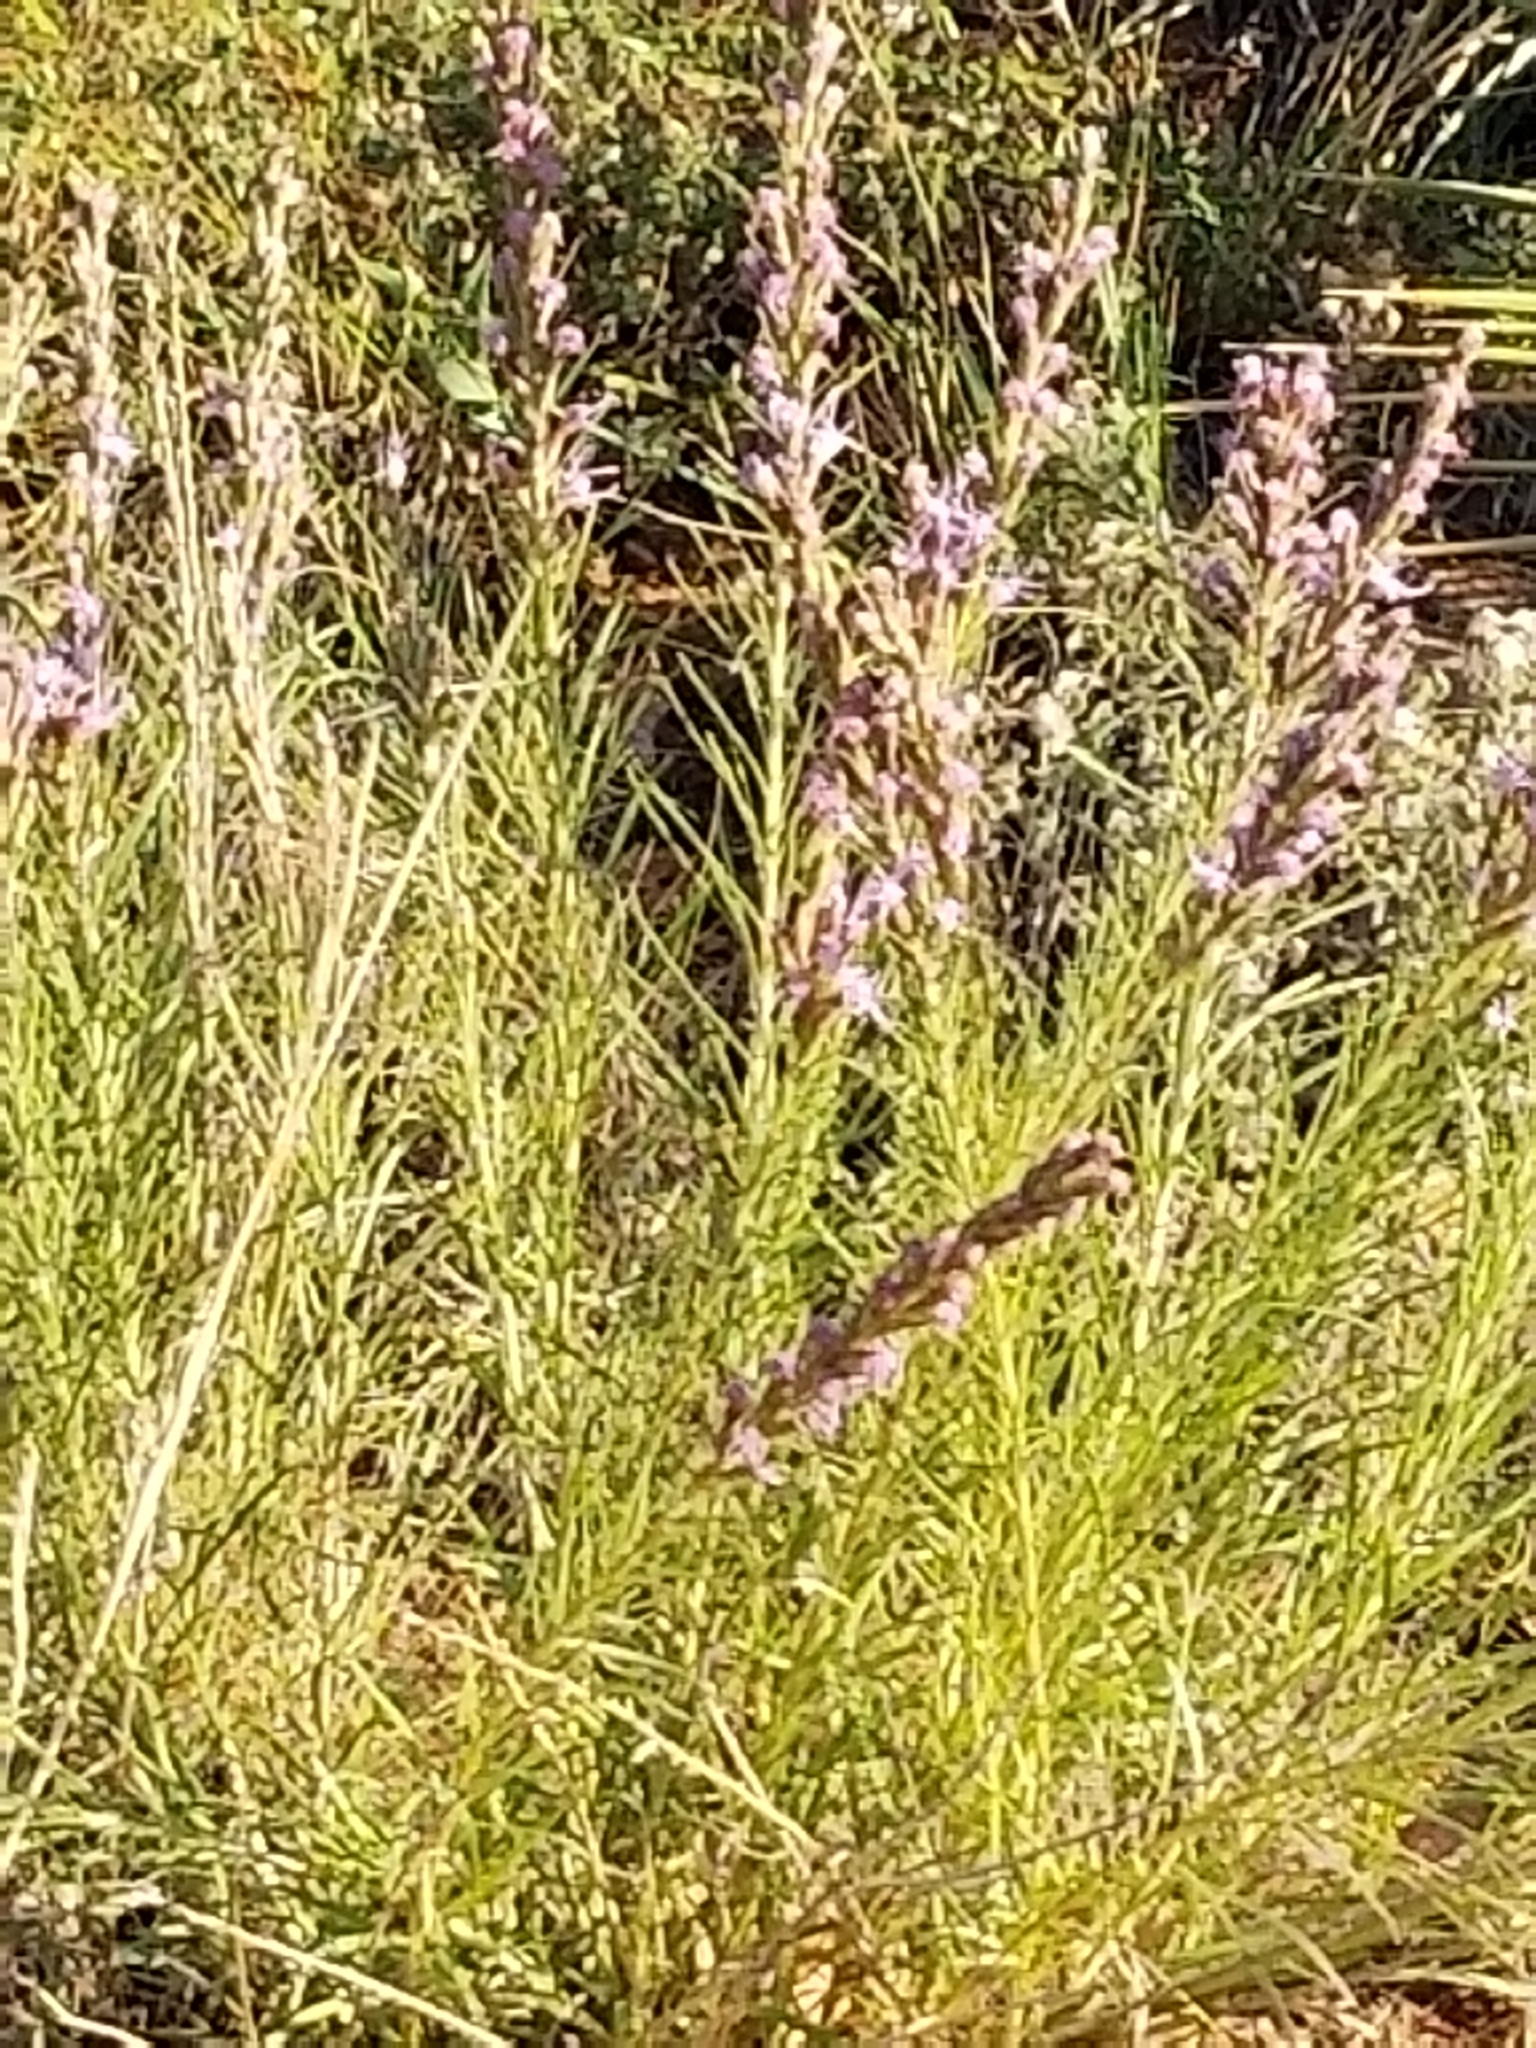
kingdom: Plantae
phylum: Tracheophyta
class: Magnoliopsida
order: Asterales
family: Asteraceae
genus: Liatris
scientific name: Liatris punctata
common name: Dotted gayfeather
